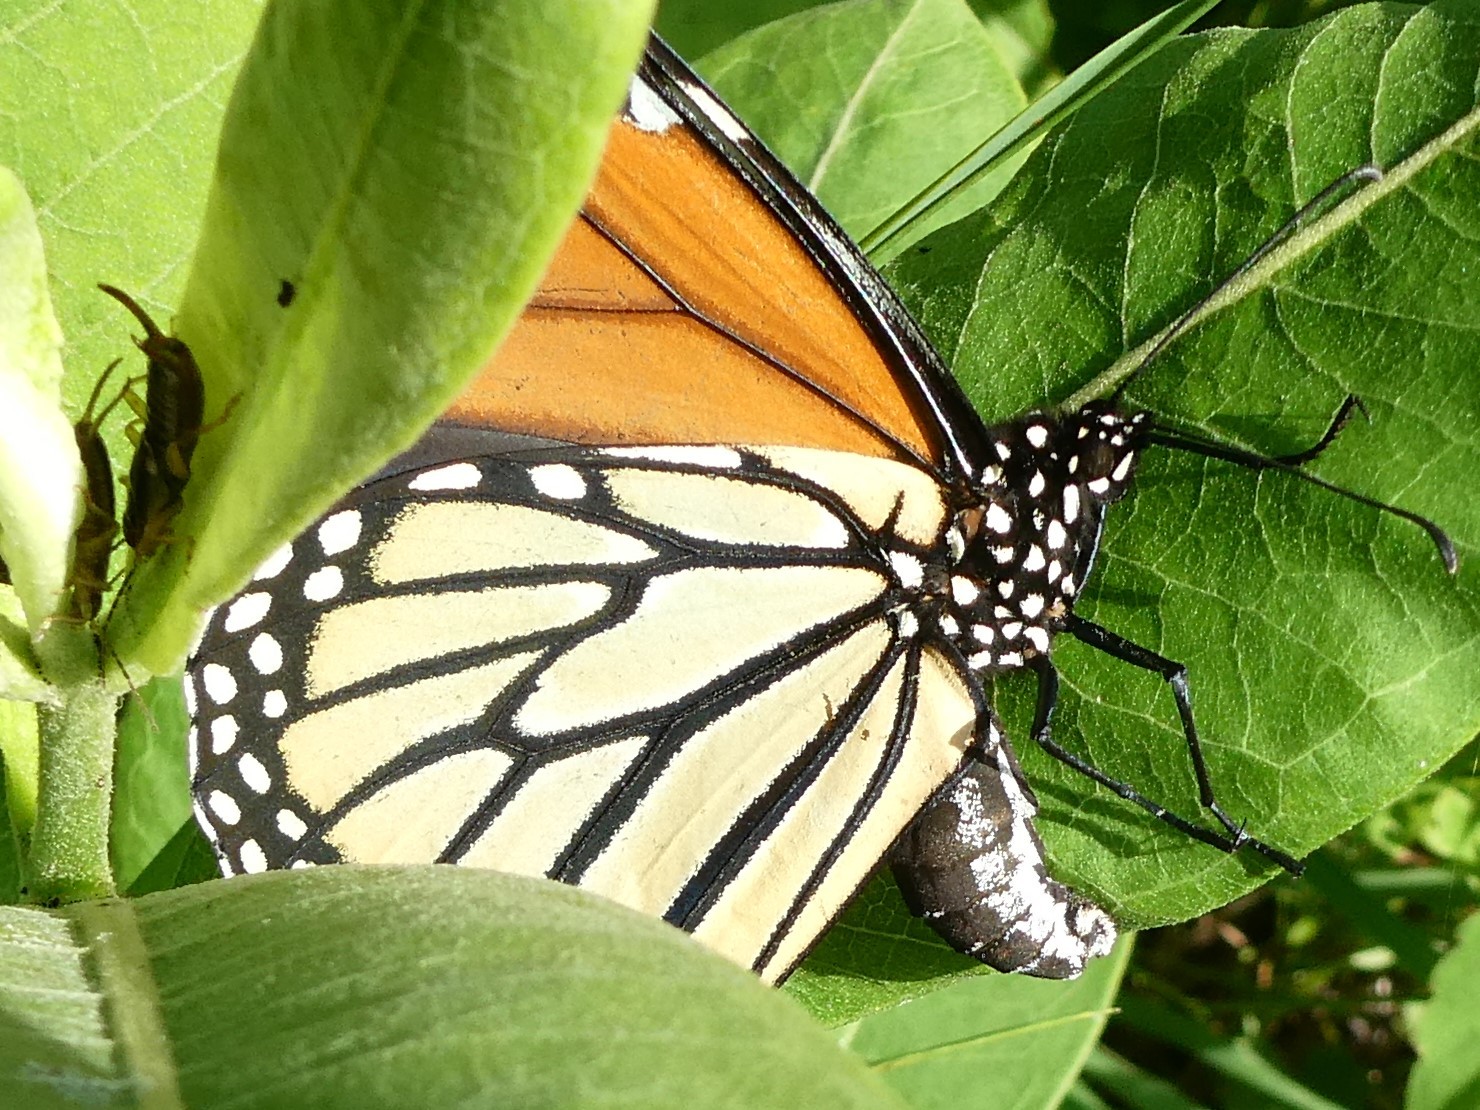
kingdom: Animalia
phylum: Arthropoda
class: Insecta
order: Lepidoptera
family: Nymphalidae
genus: Danaus
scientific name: Danaus plexippus
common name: Monarch
